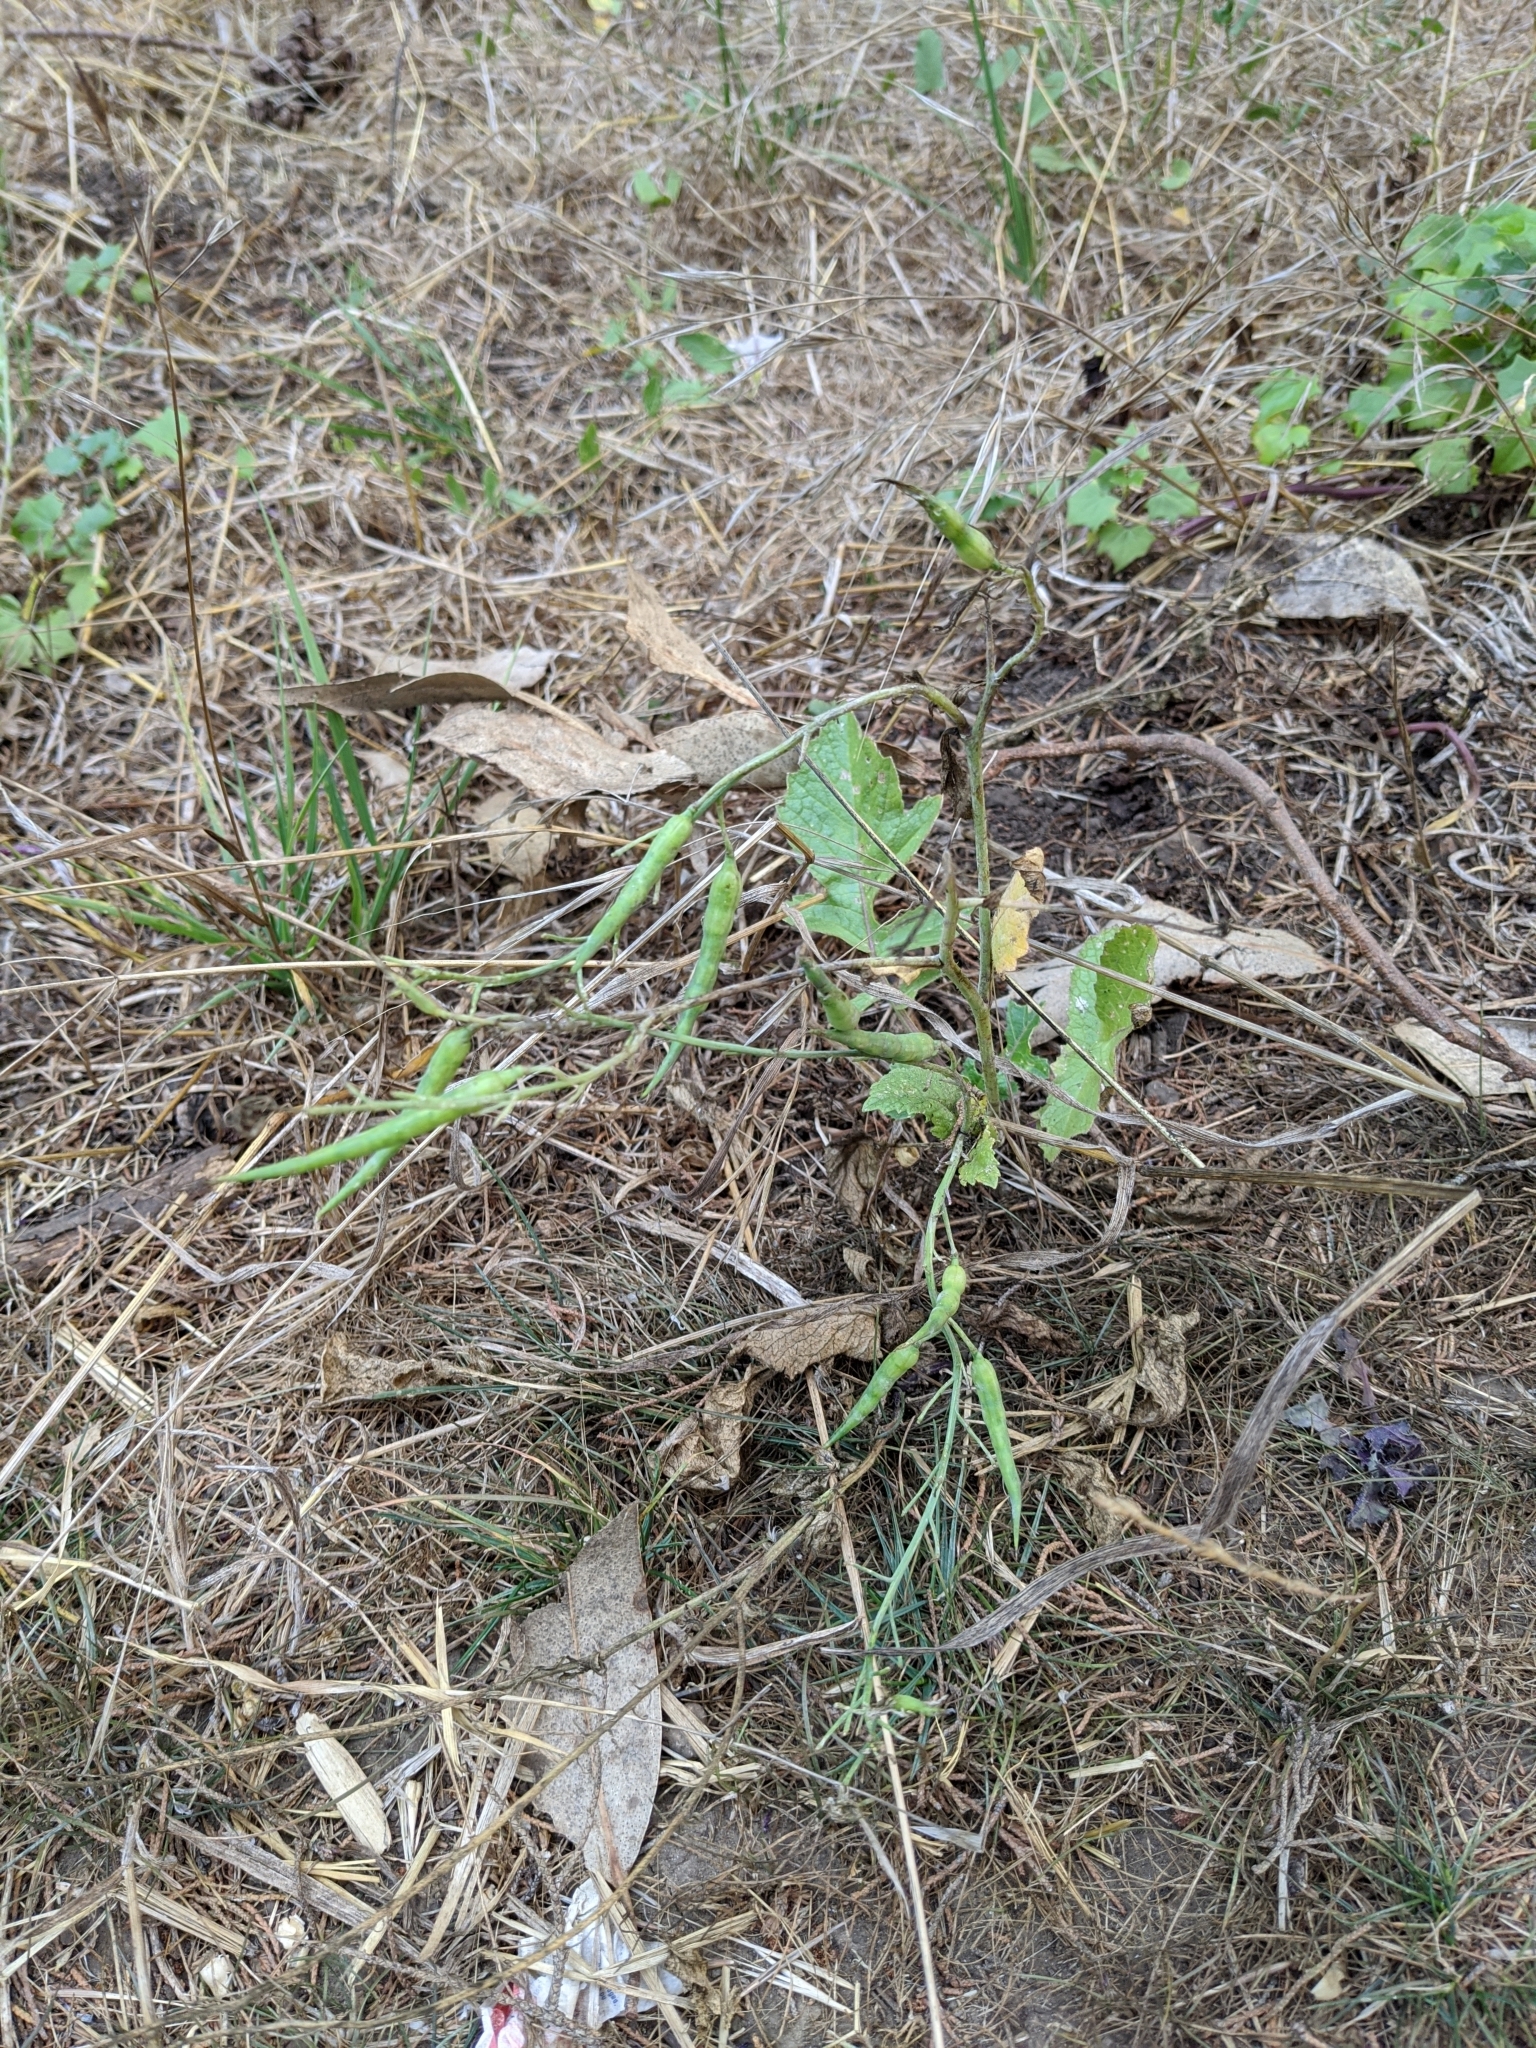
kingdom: Plantae
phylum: Tracheophyta
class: Magnoliopsida
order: Brassicales
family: Brassicaceae
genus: Raphanus
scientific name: Raphanus sativus
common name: Cultivated radish
